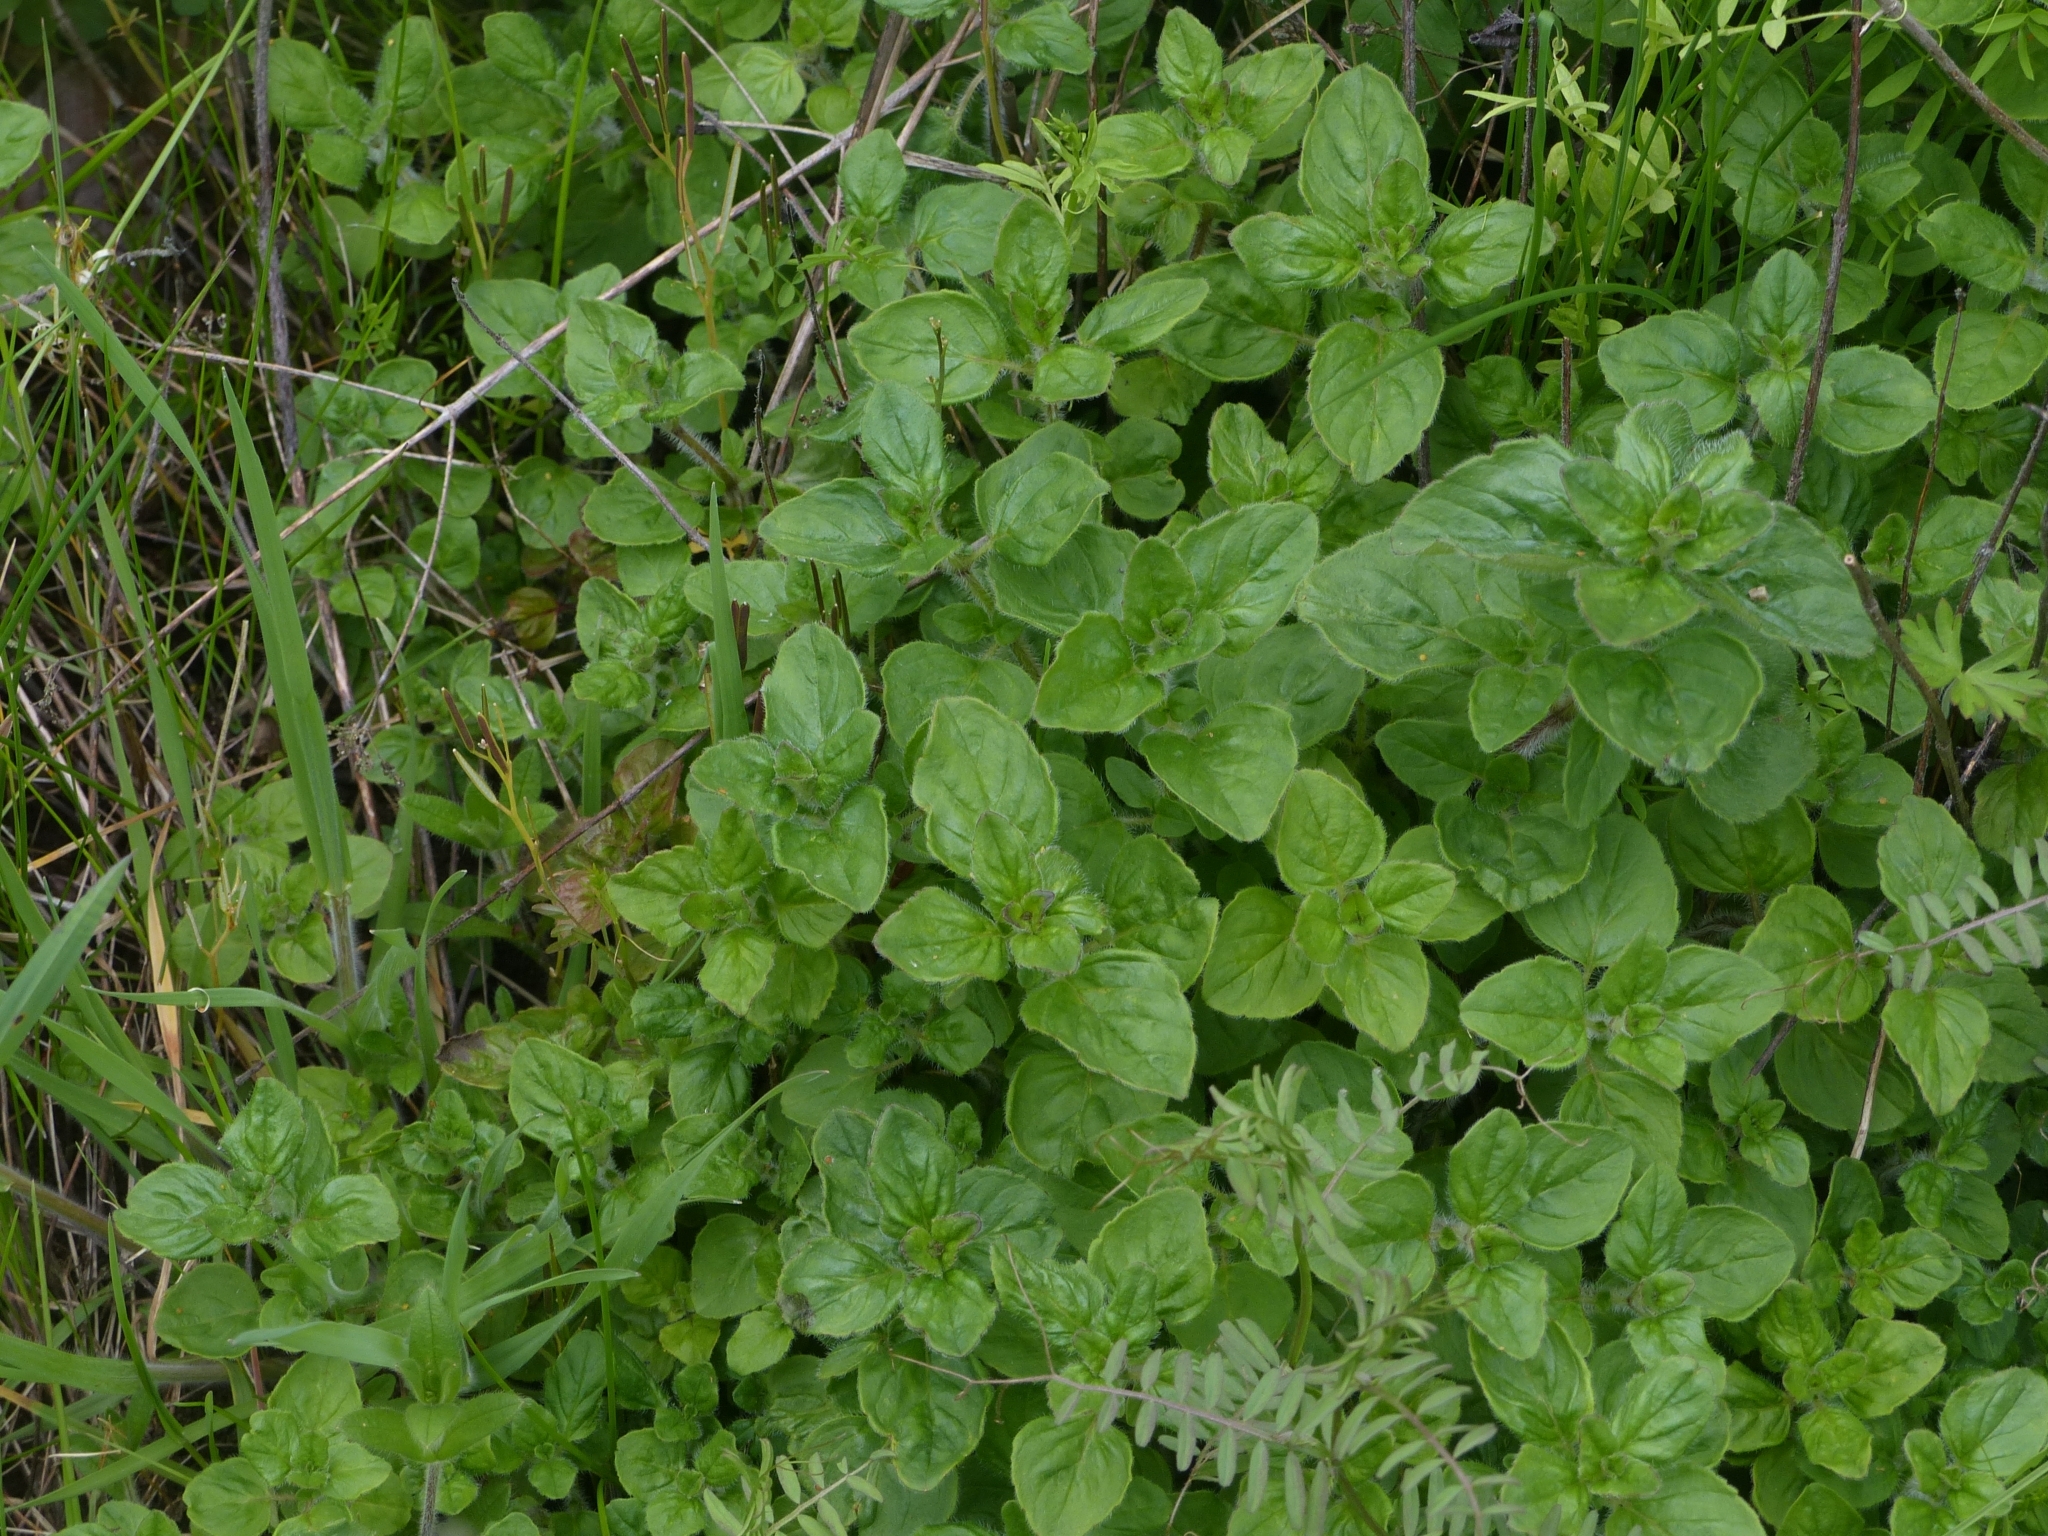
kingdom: Plantae
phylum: Tracheophyta
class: Magnoliopsida
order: Lamiales
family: Lamiaceae
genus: Origanum
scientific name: Origanum vulgare
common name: Wild marjoram
